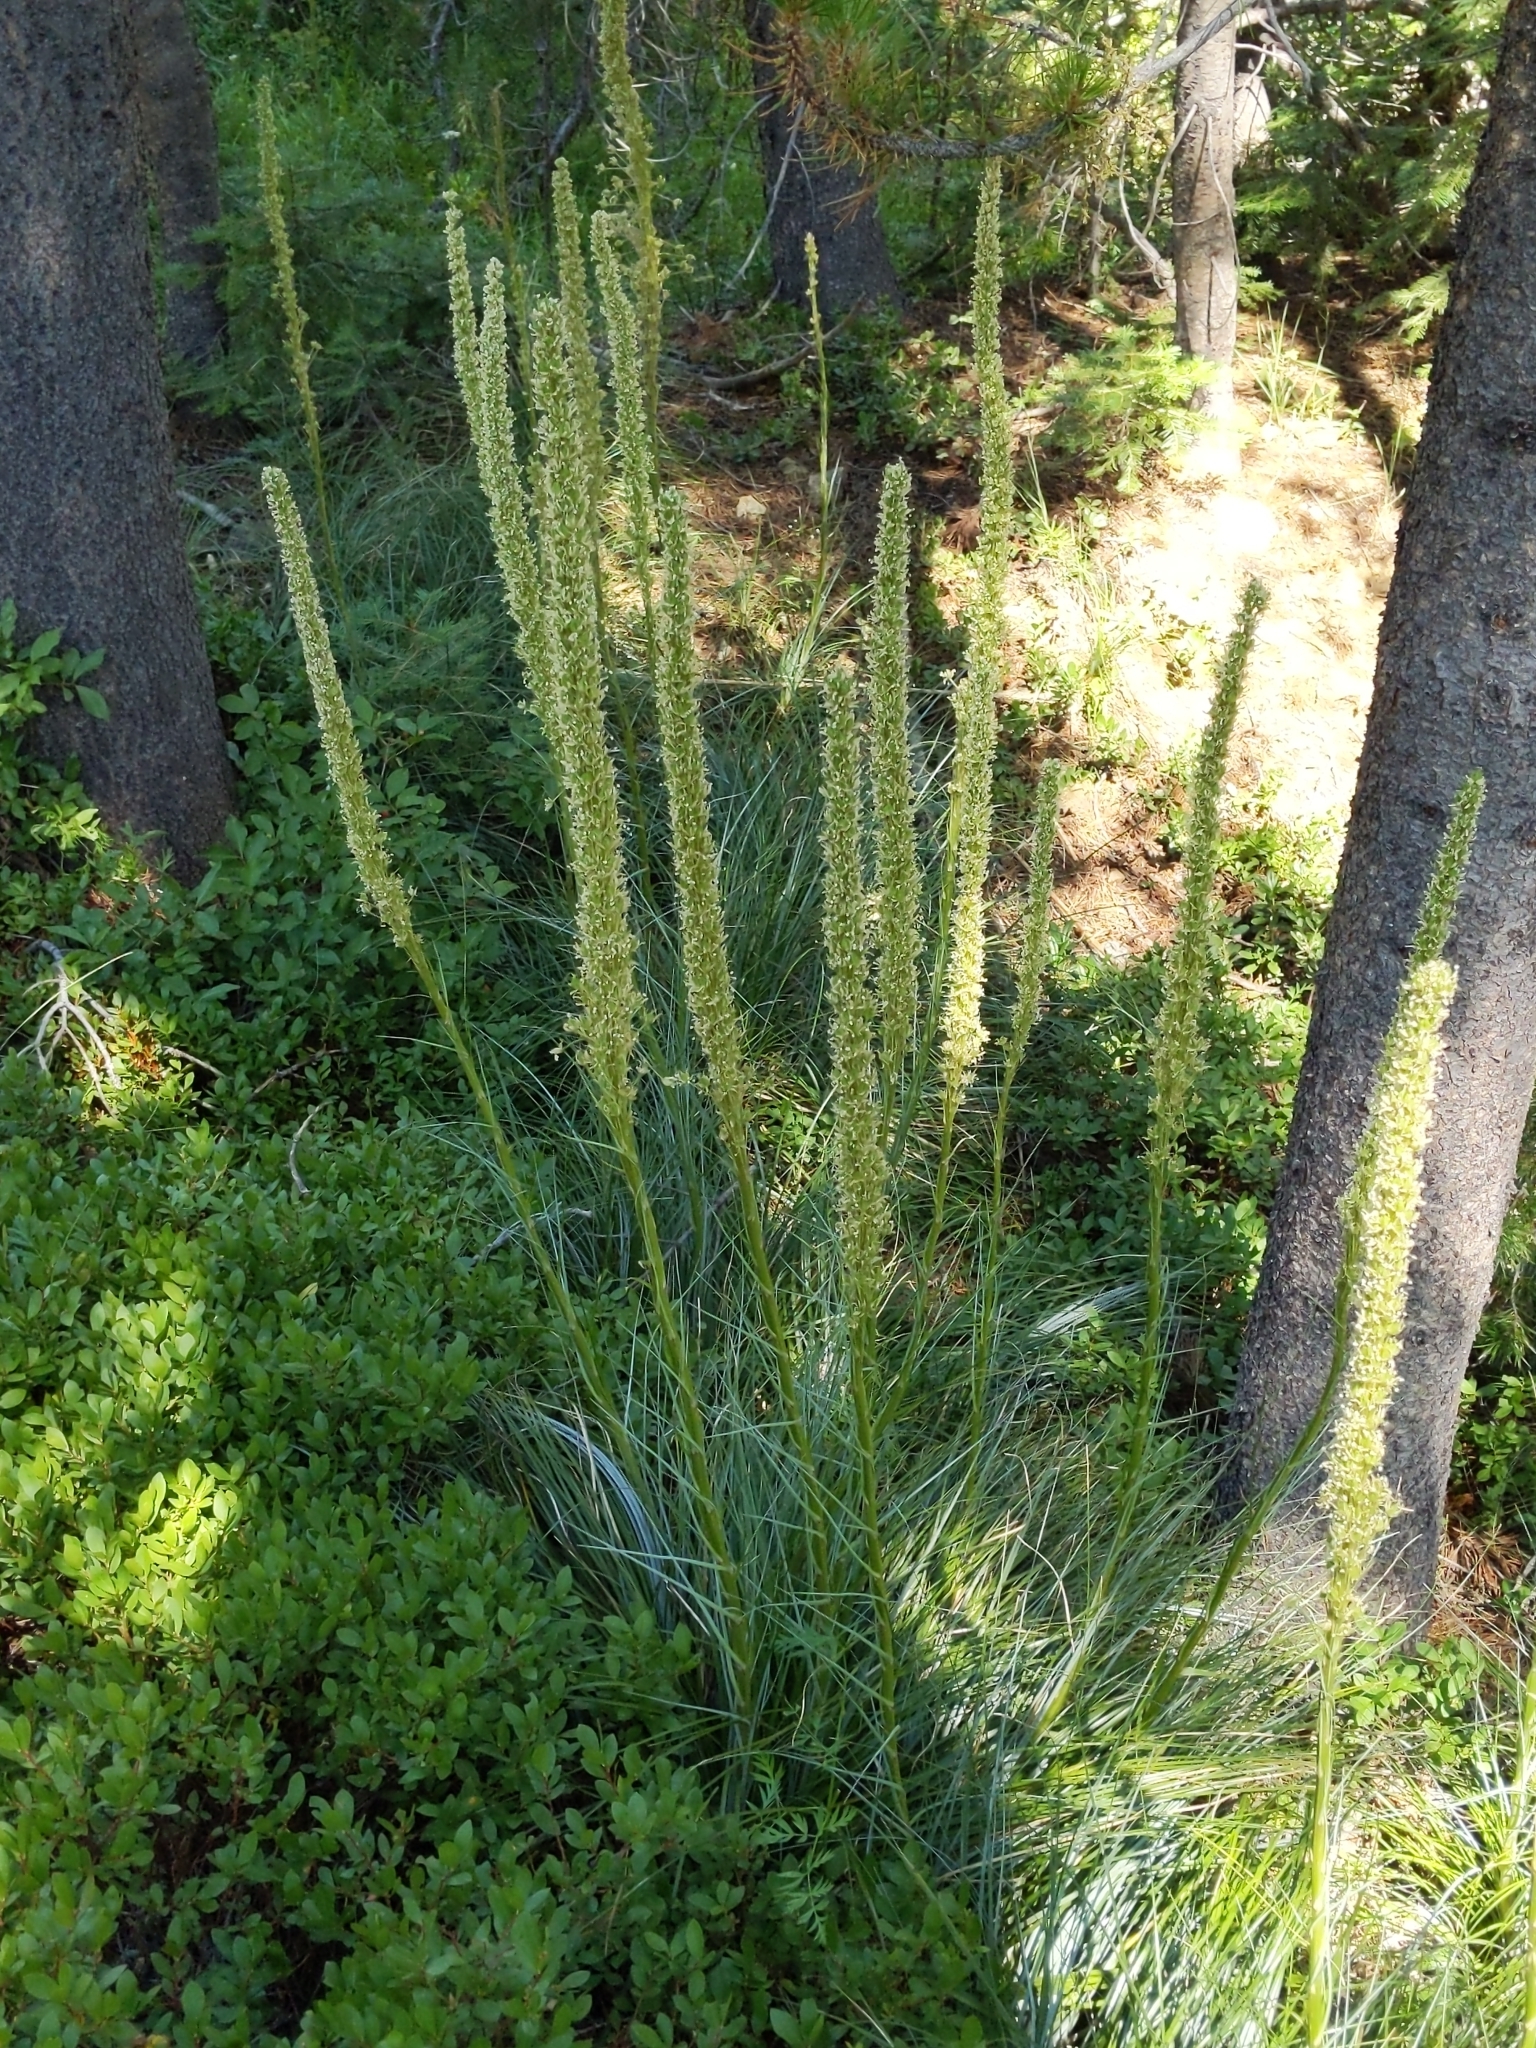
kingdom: Plantae
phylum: Tracheophyta
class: Liliopsida
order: Liliales
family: Melanthiaceae
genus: Xerophyllum
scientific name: Xerophyllum tenax
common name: Bear-grass
